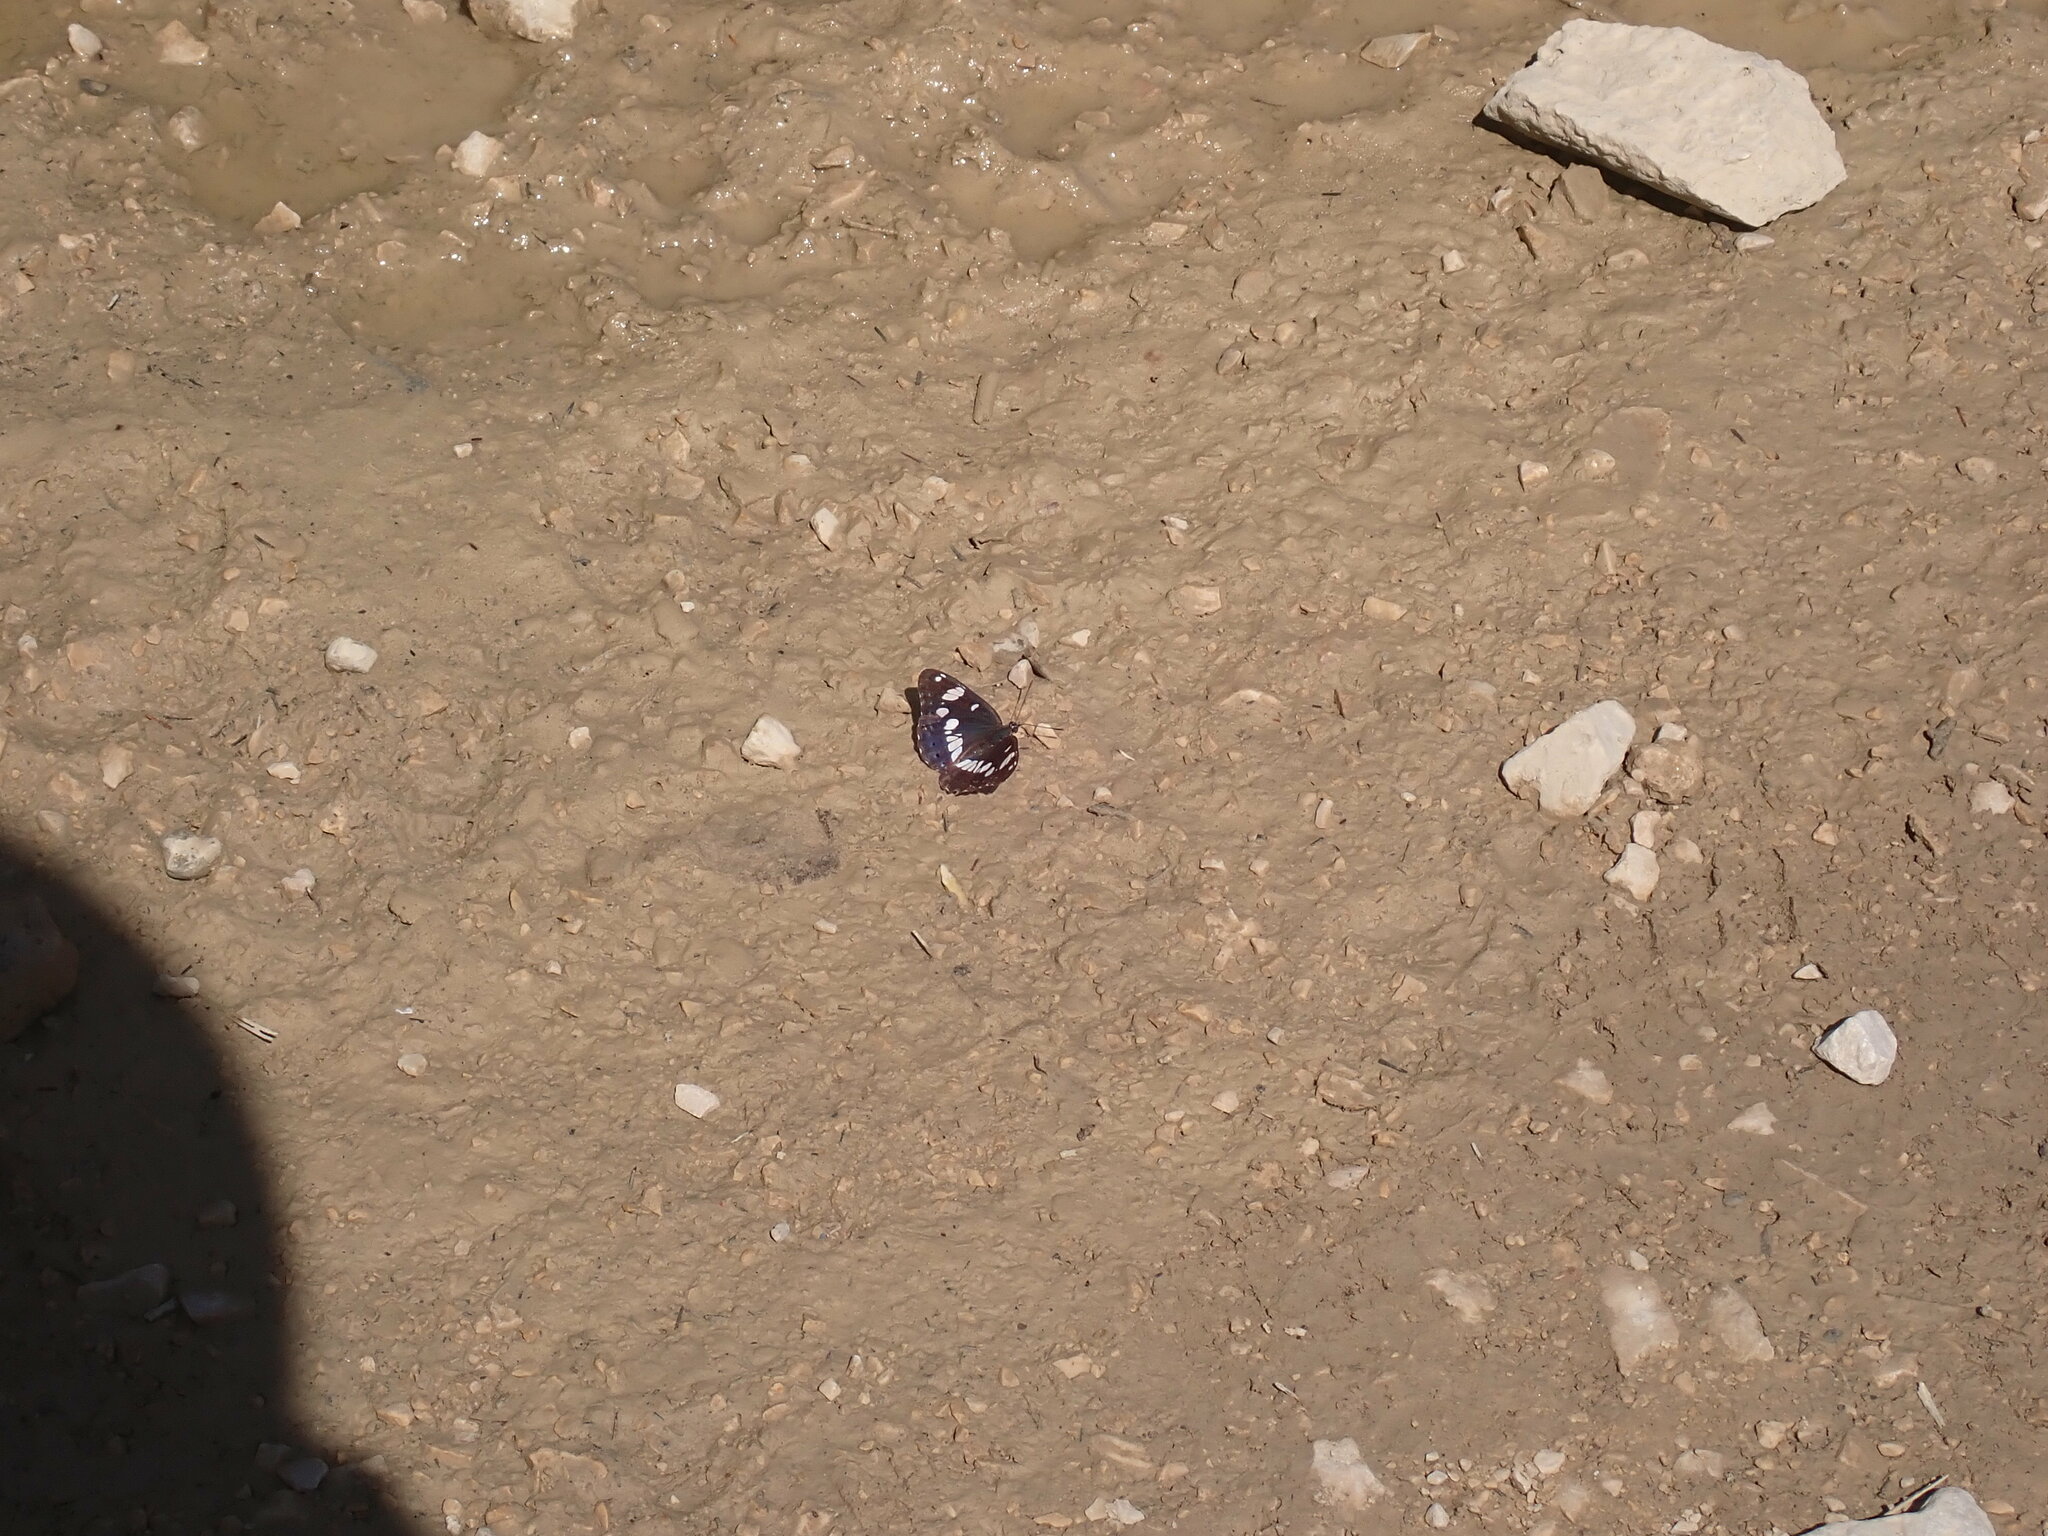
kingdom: Animalia
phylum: Arthropoda
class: Insecta
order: Lepidoptera
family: Nymphalidae
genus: Limenitis
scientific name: Limenitis reducta
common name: Southern white admiral
